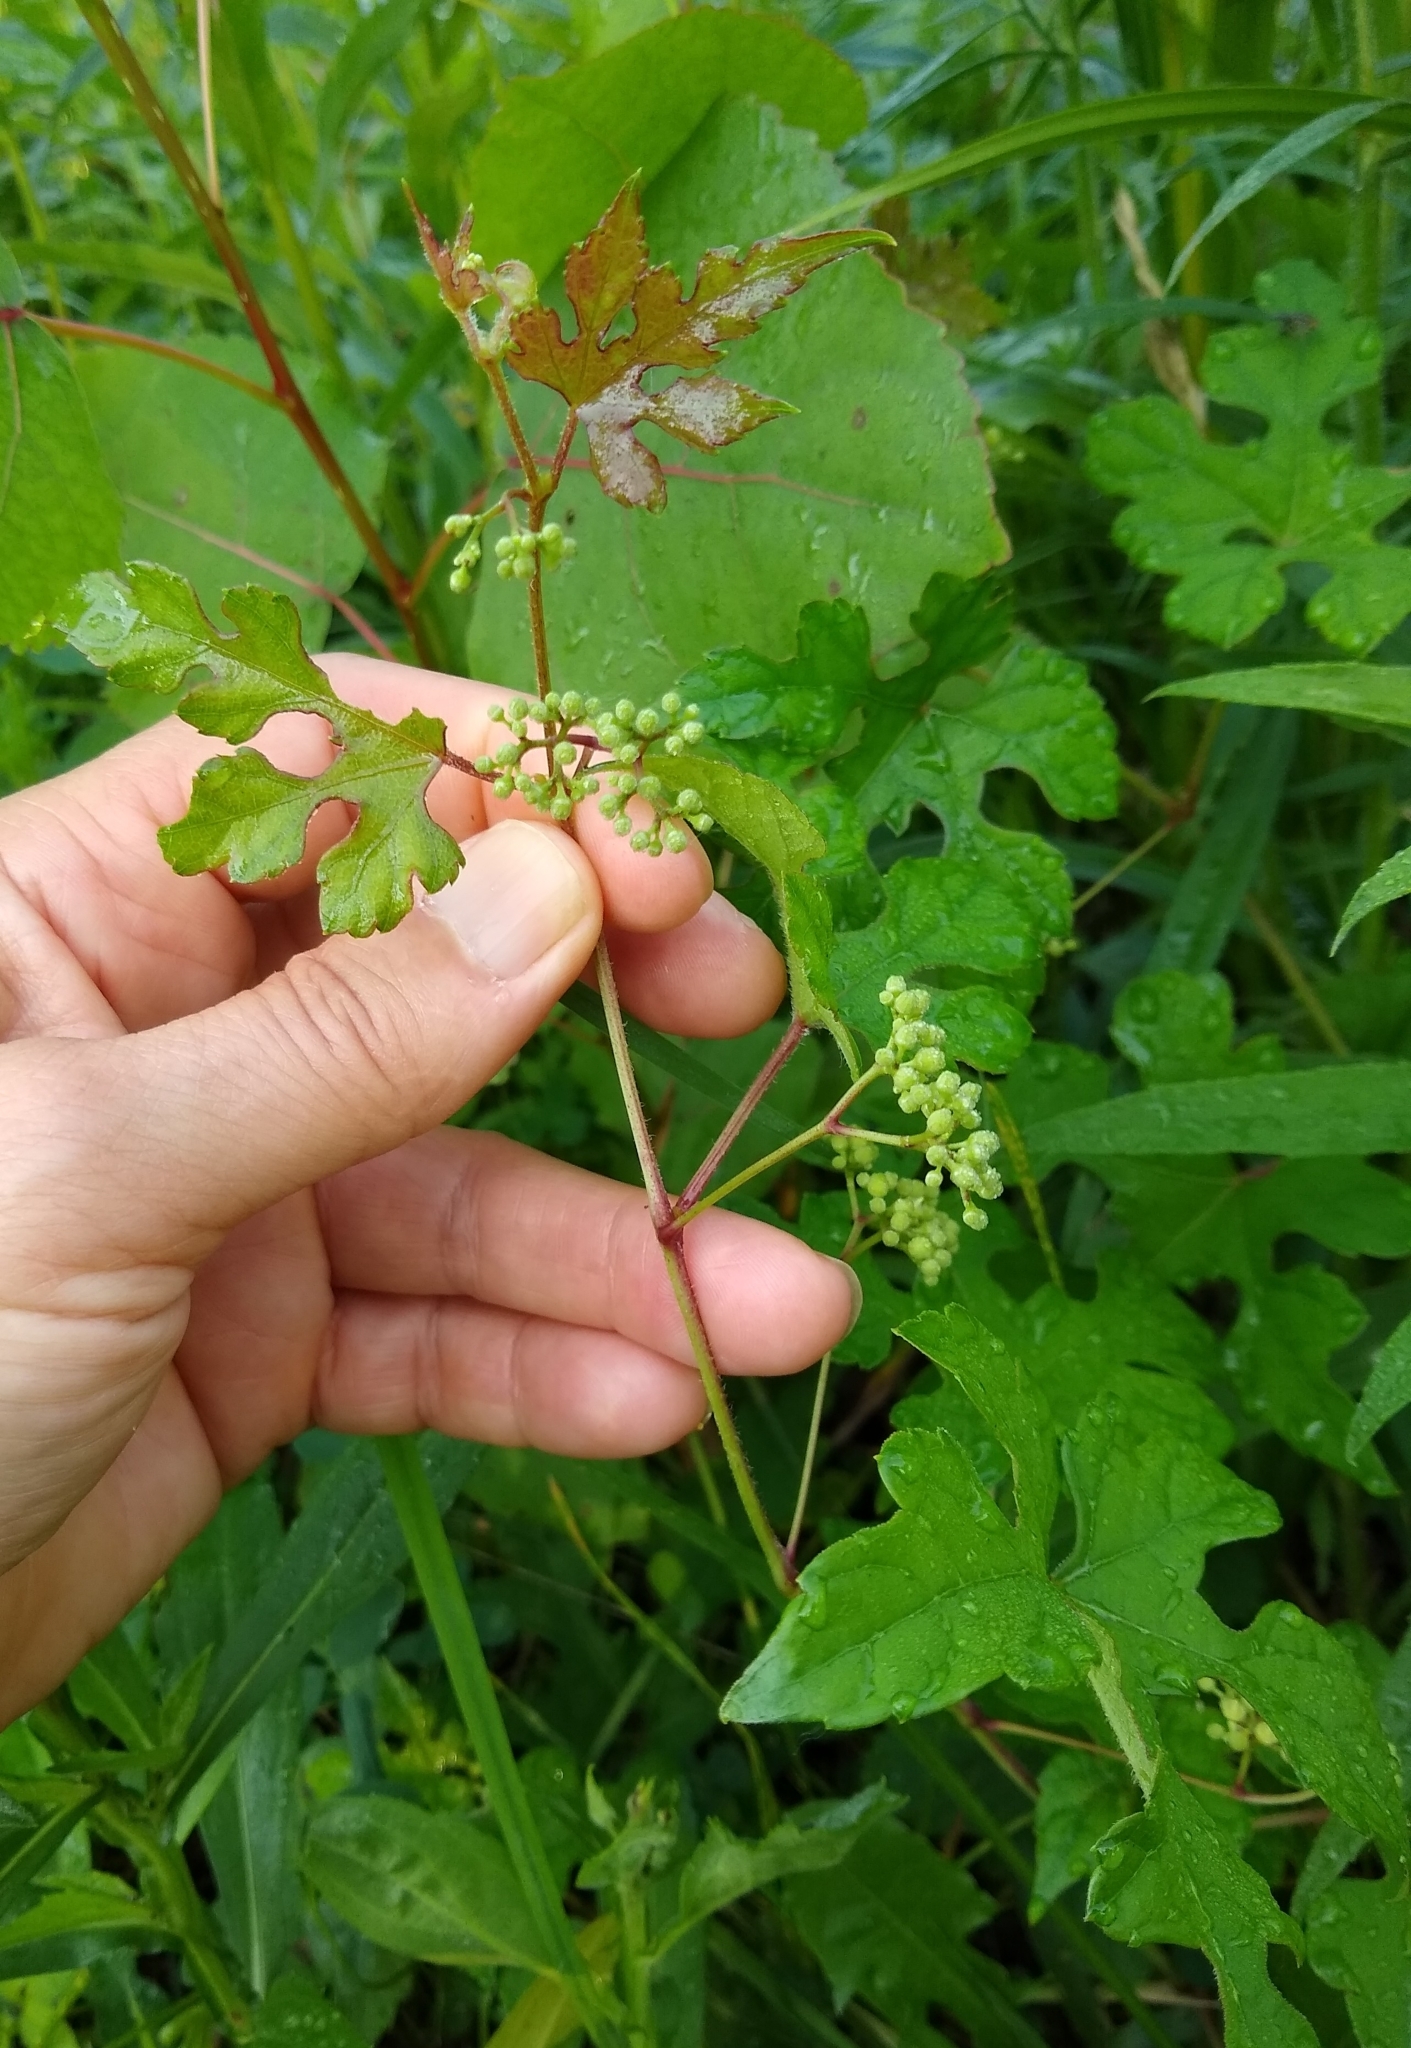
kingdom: Plantae
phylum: Tracheophyta
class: Magnoliopsida
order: Vitales
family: Vitaceae
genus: Ampelopsis
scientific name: Ampelopsis glandulosa
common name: Amur peppervine
